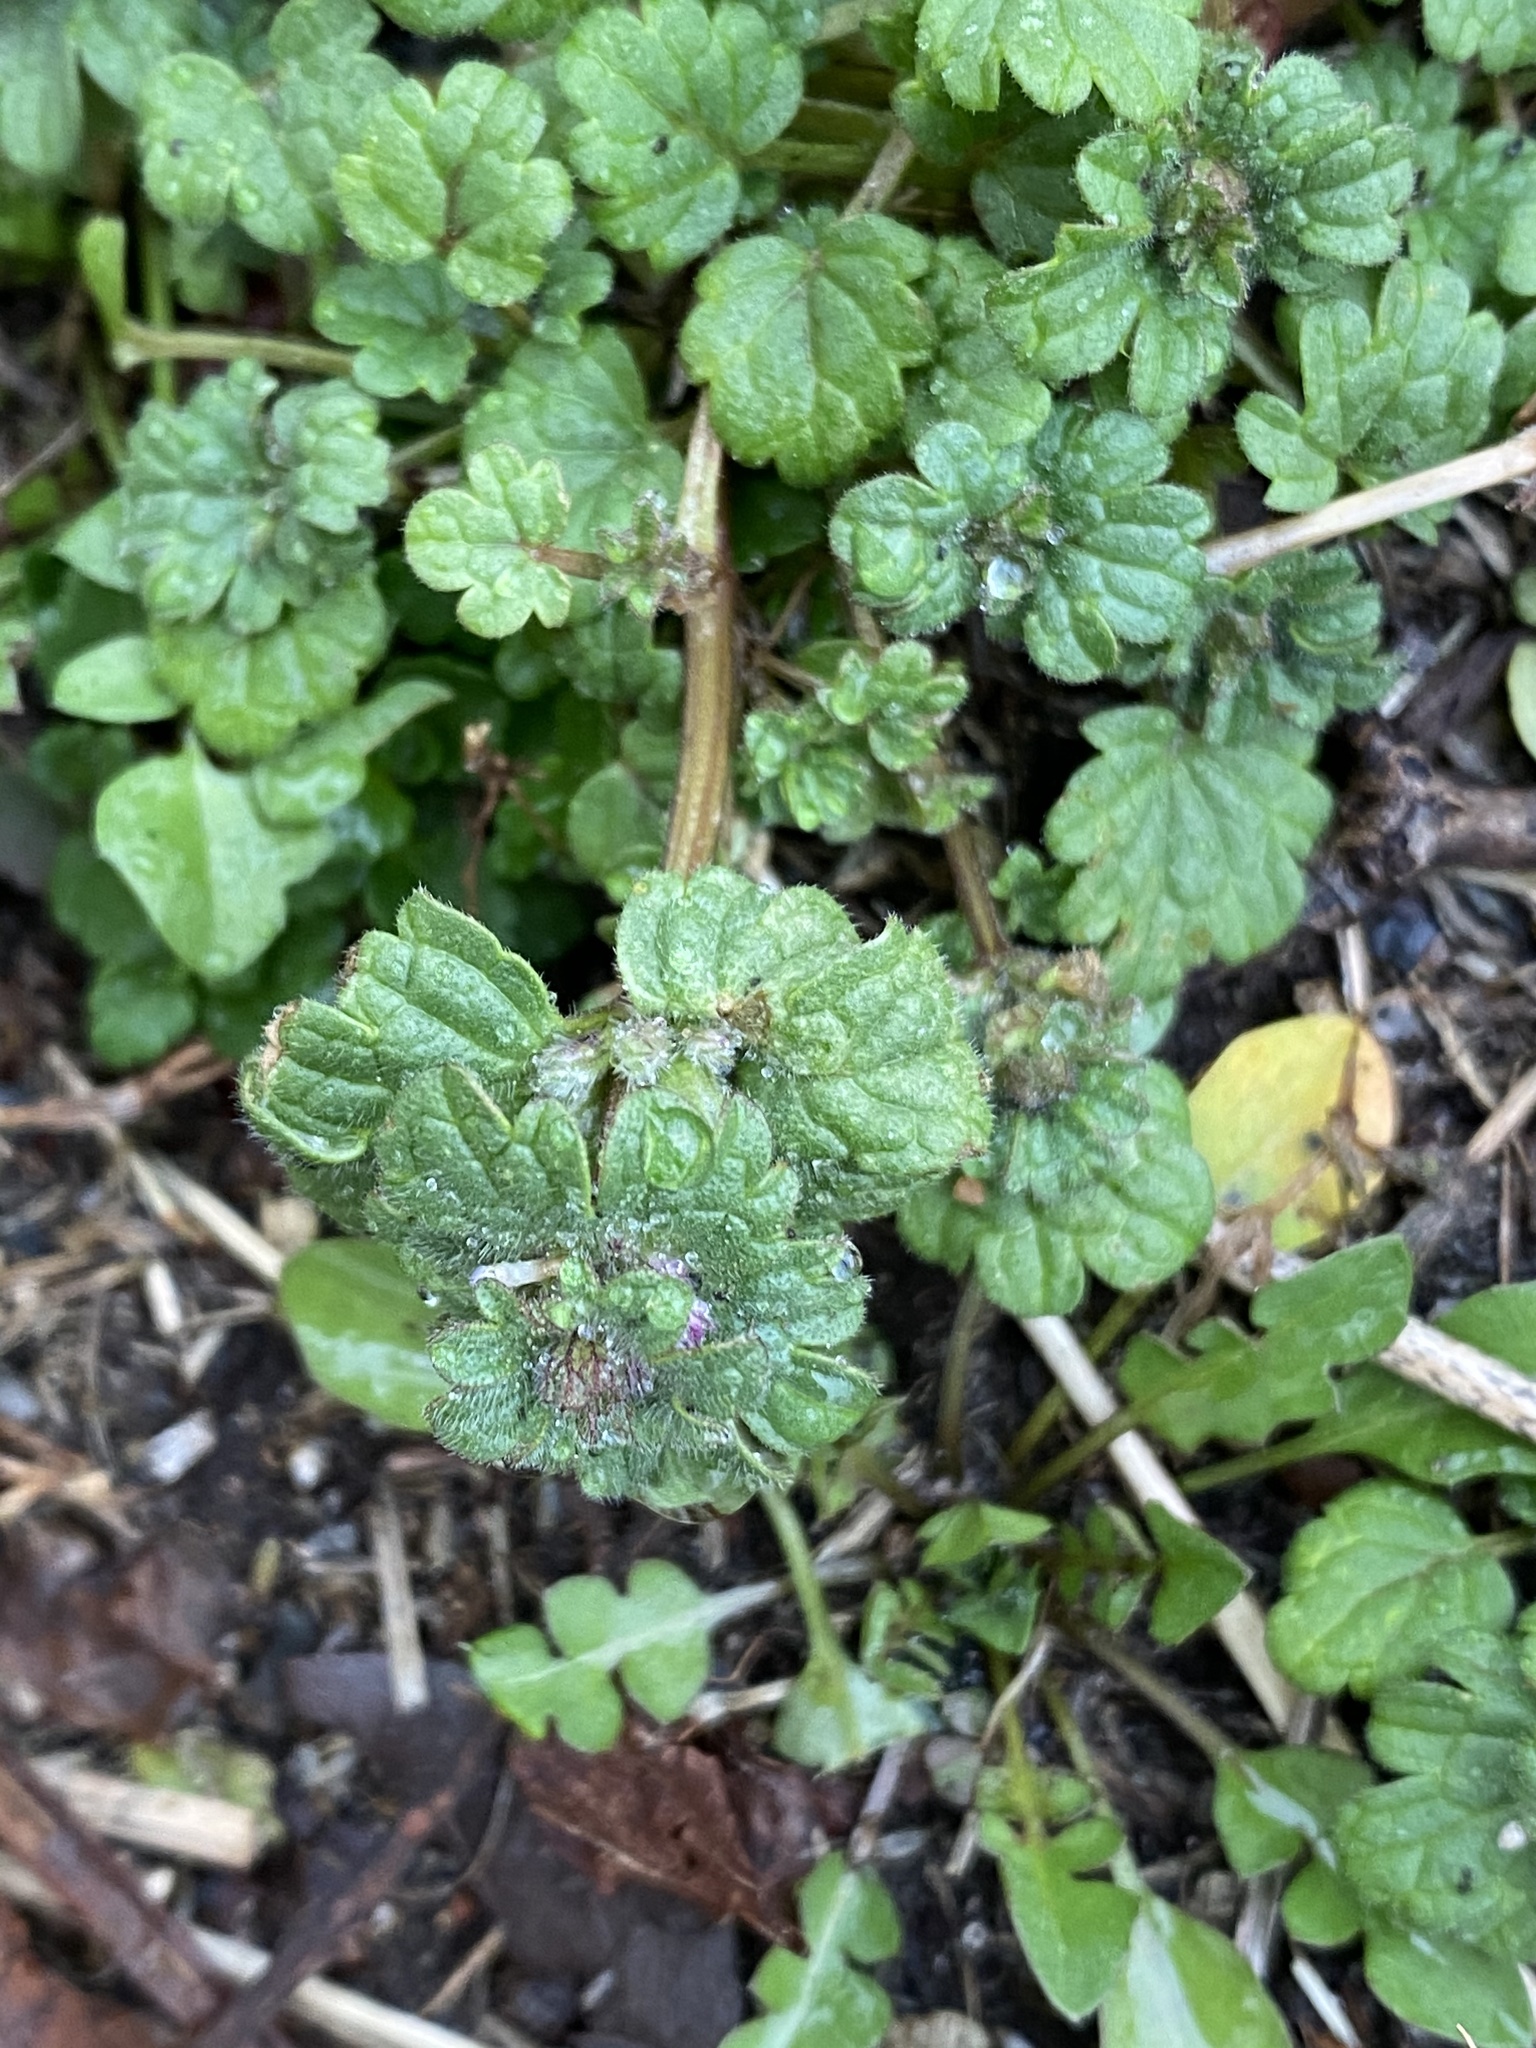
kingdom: Plantae
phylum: Tracheophyta
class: Magnoliopsida
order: Lamiales
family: Lamiaceae
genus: Lamium
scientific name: Lamium amplexicaule
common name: Henbit dead-nettle
